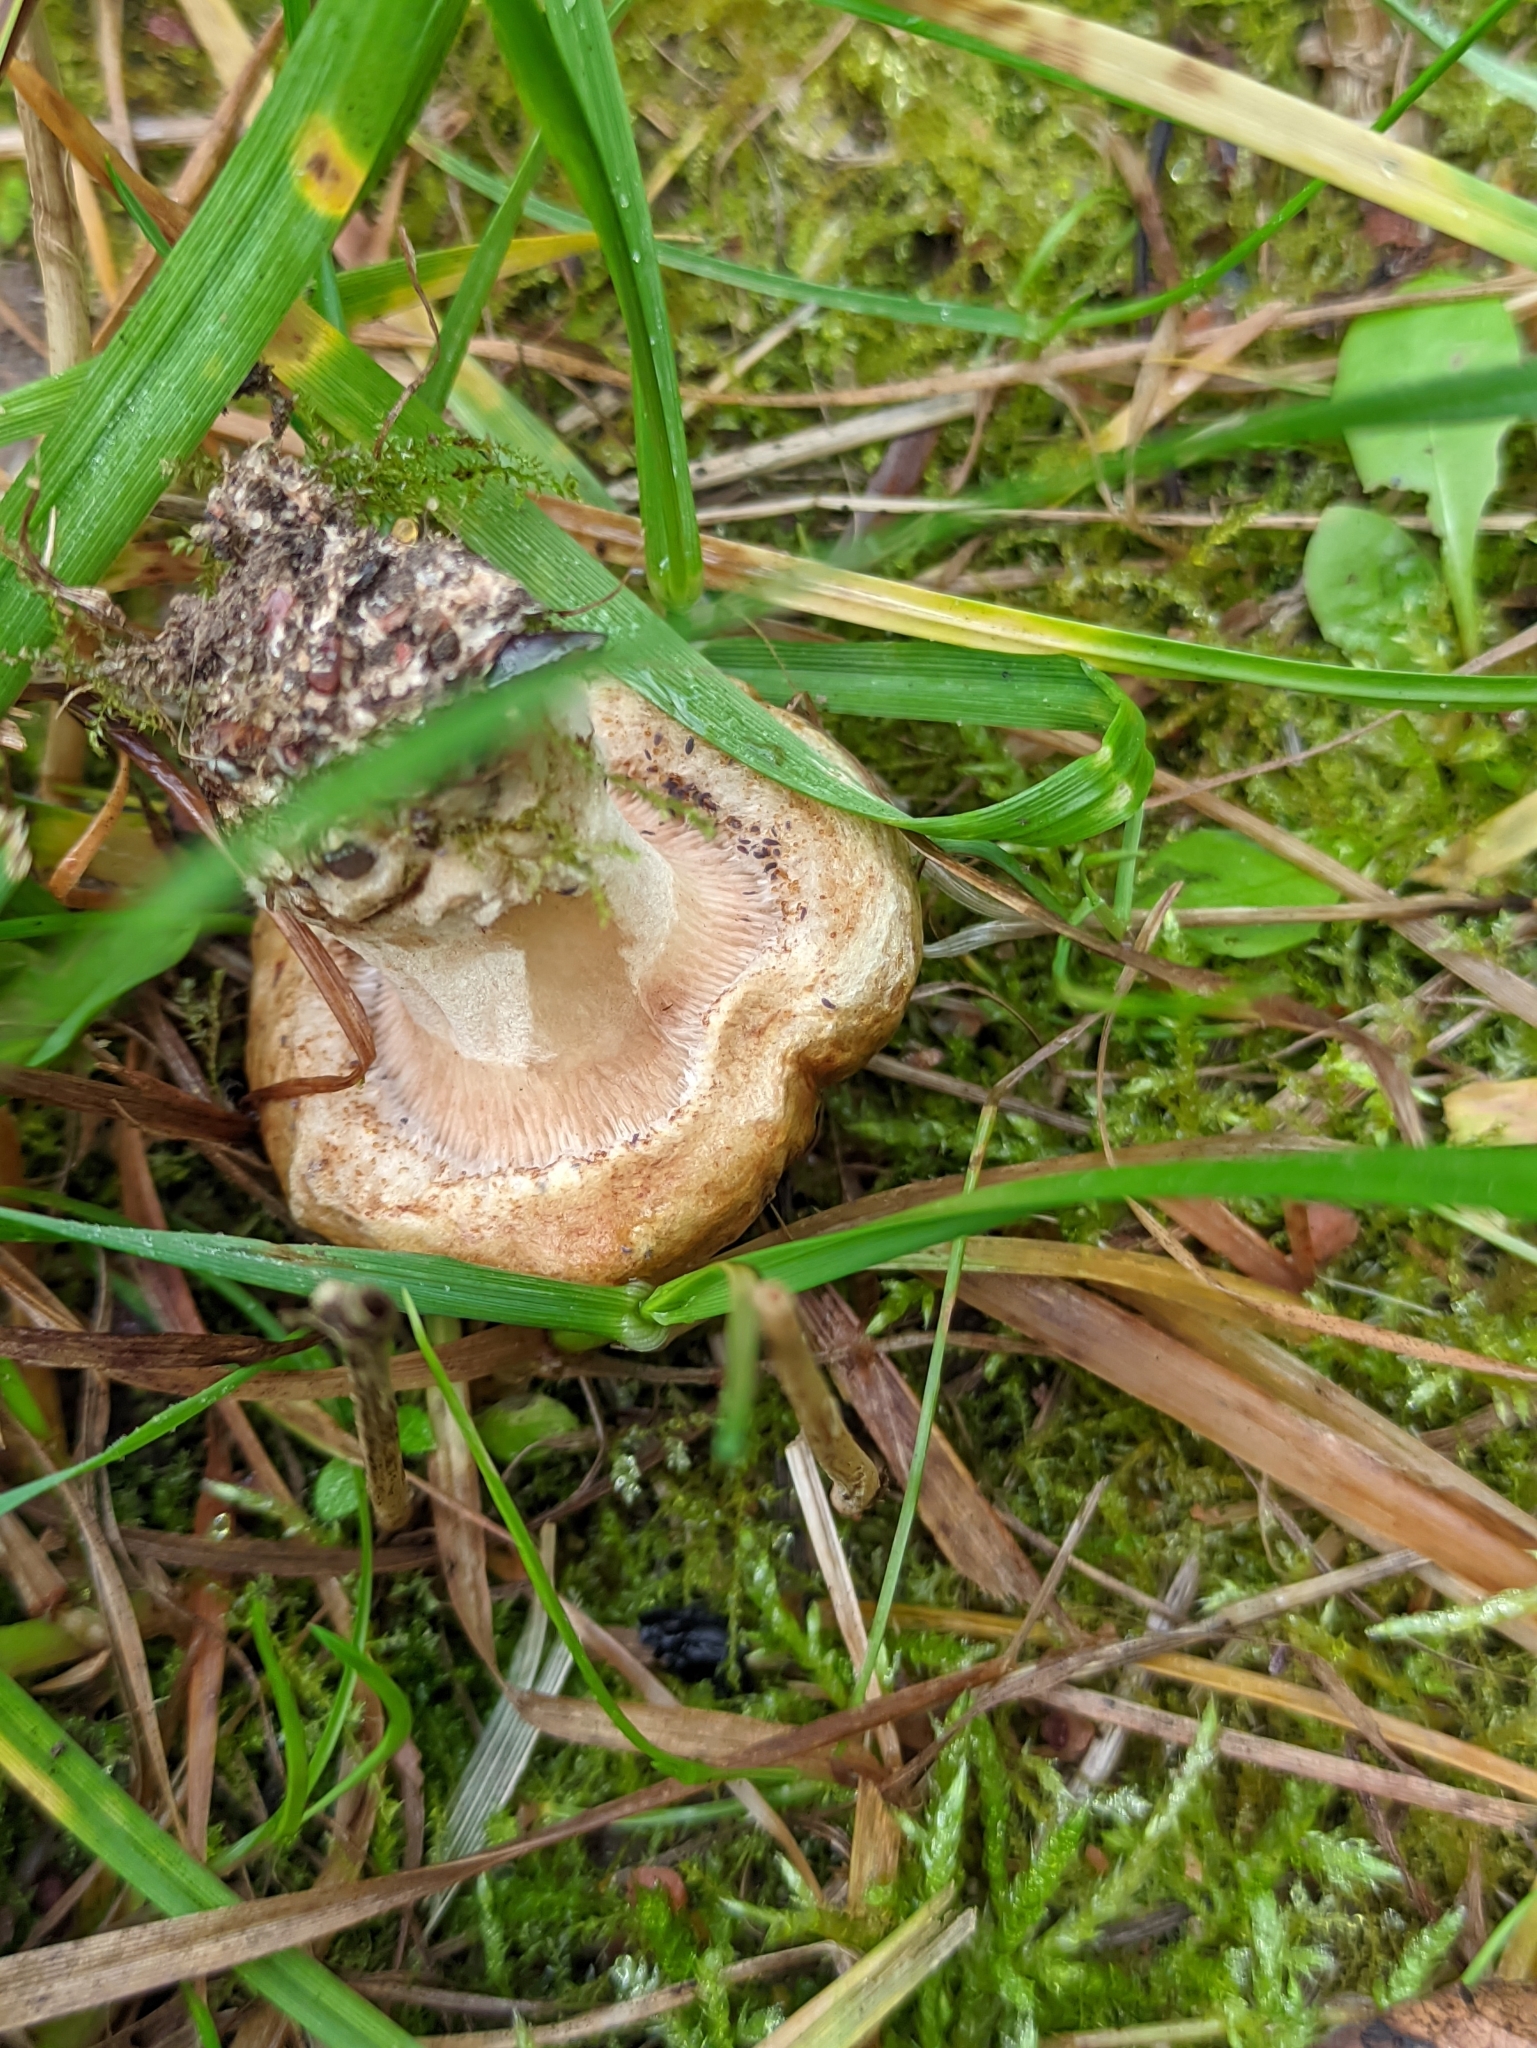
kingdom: Fungi
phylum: Basidiomycota
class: Agaricomycetes
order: Boletales
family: Paxillaceae
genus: Paxillus
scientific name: Paxillus involutus
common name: Brown roll rim
